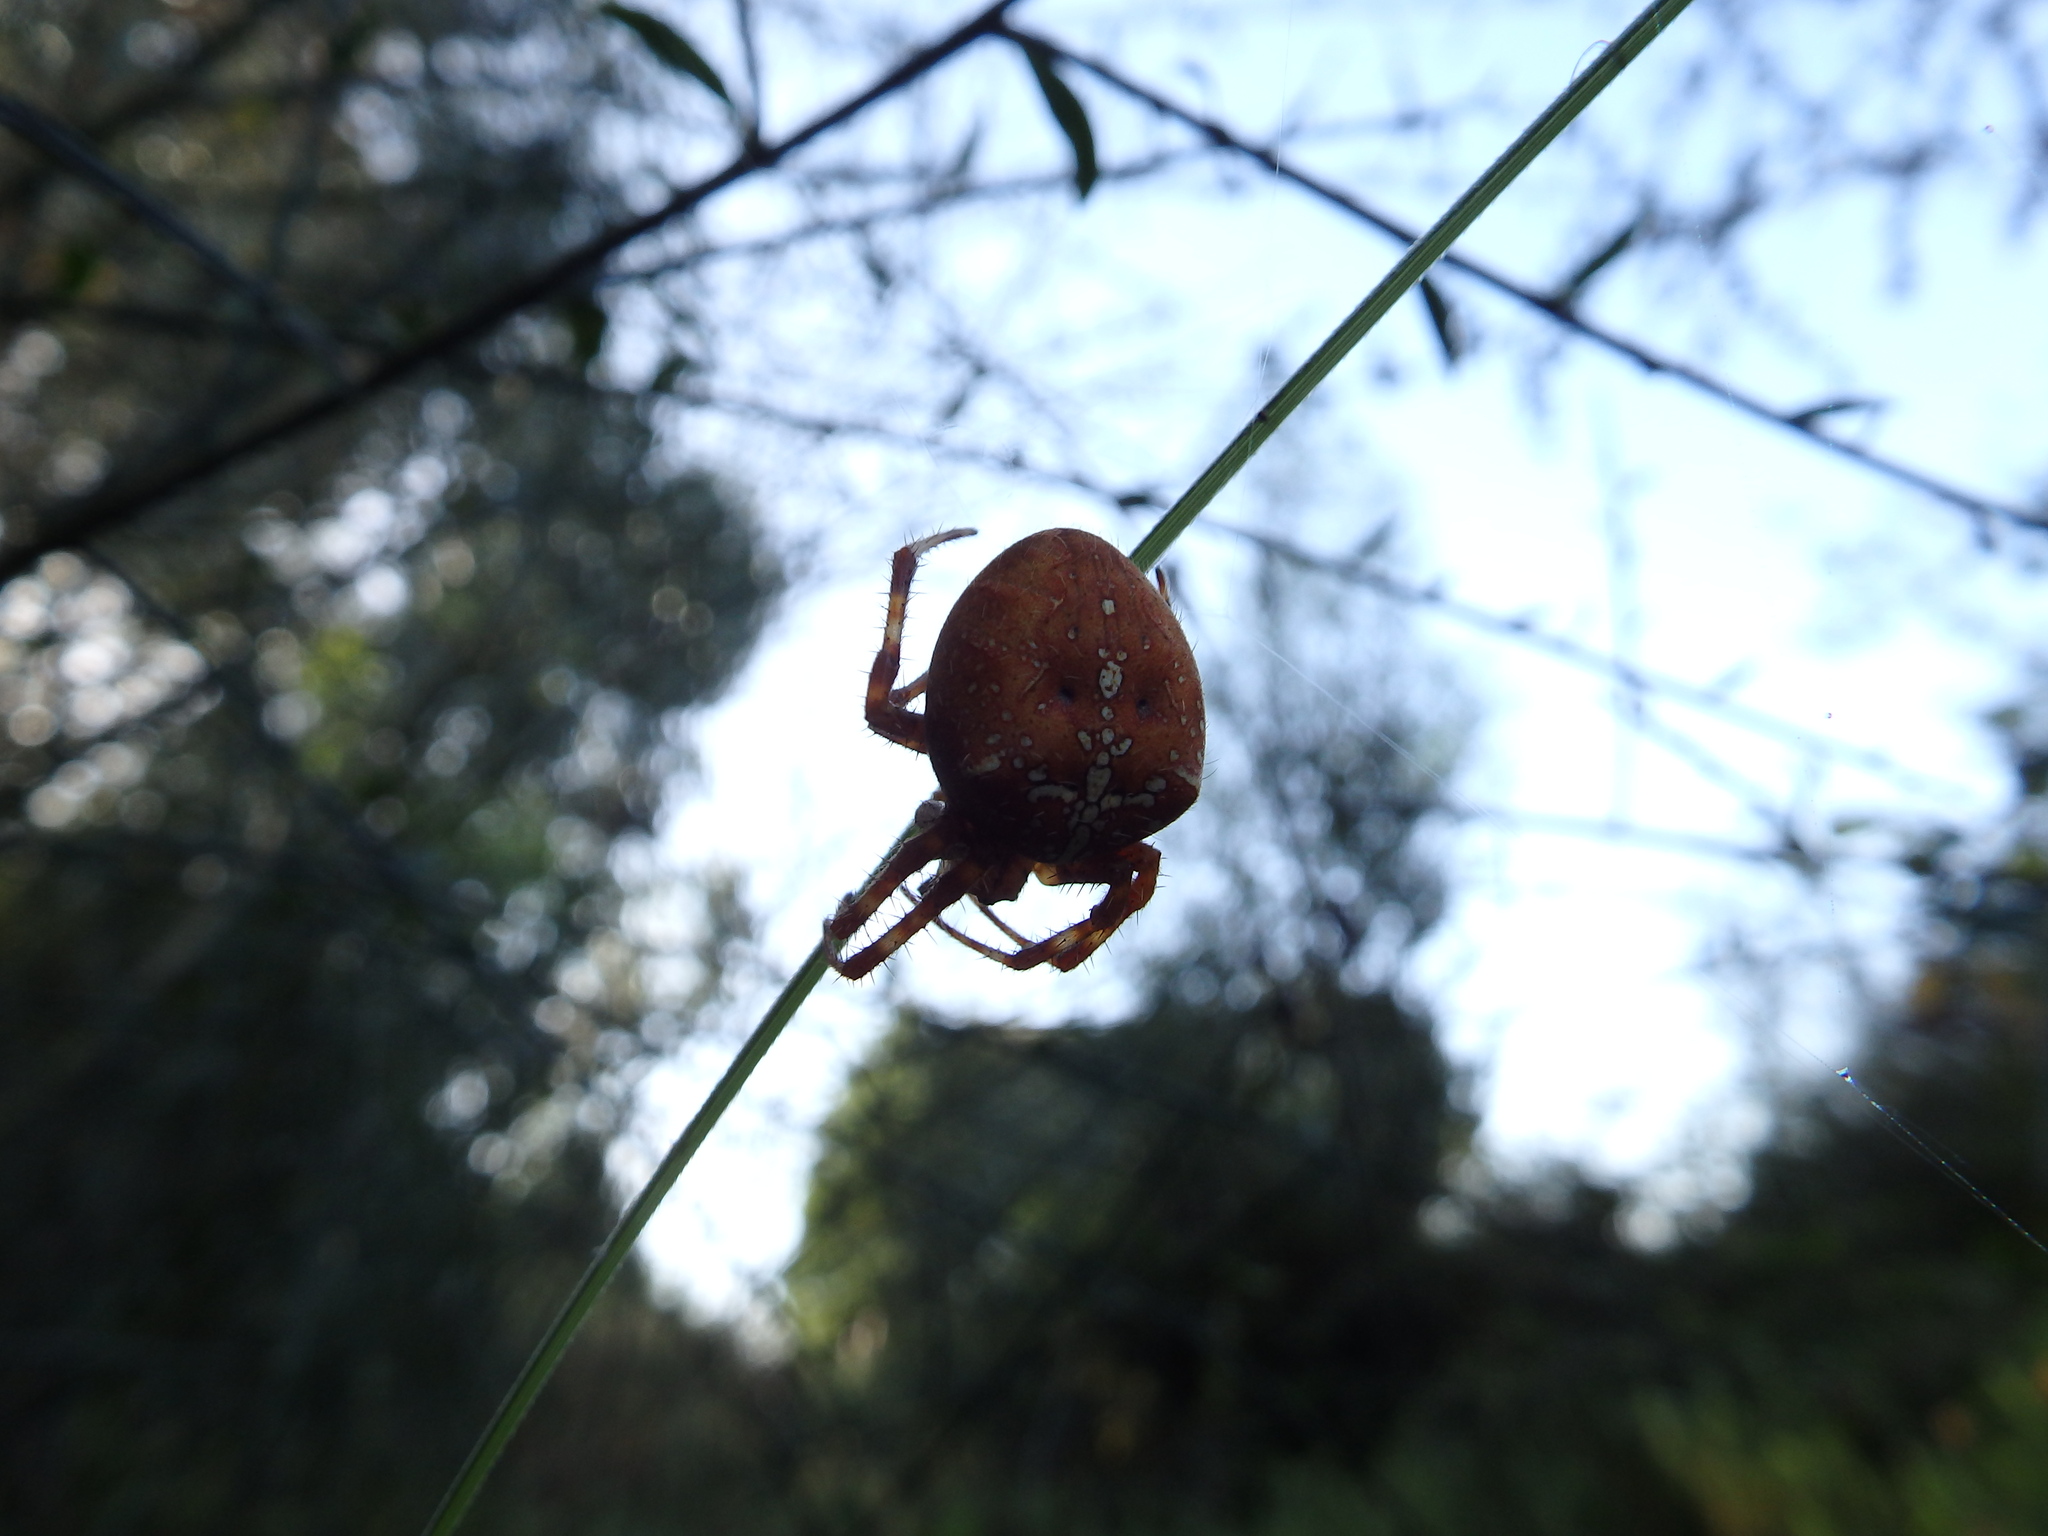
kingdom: Animalia
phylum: Arthropoda
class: Arachnida
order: Araneae
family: Araneidae
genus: Araneus
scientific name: Araneus diadematus
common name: Cross orbweaver
